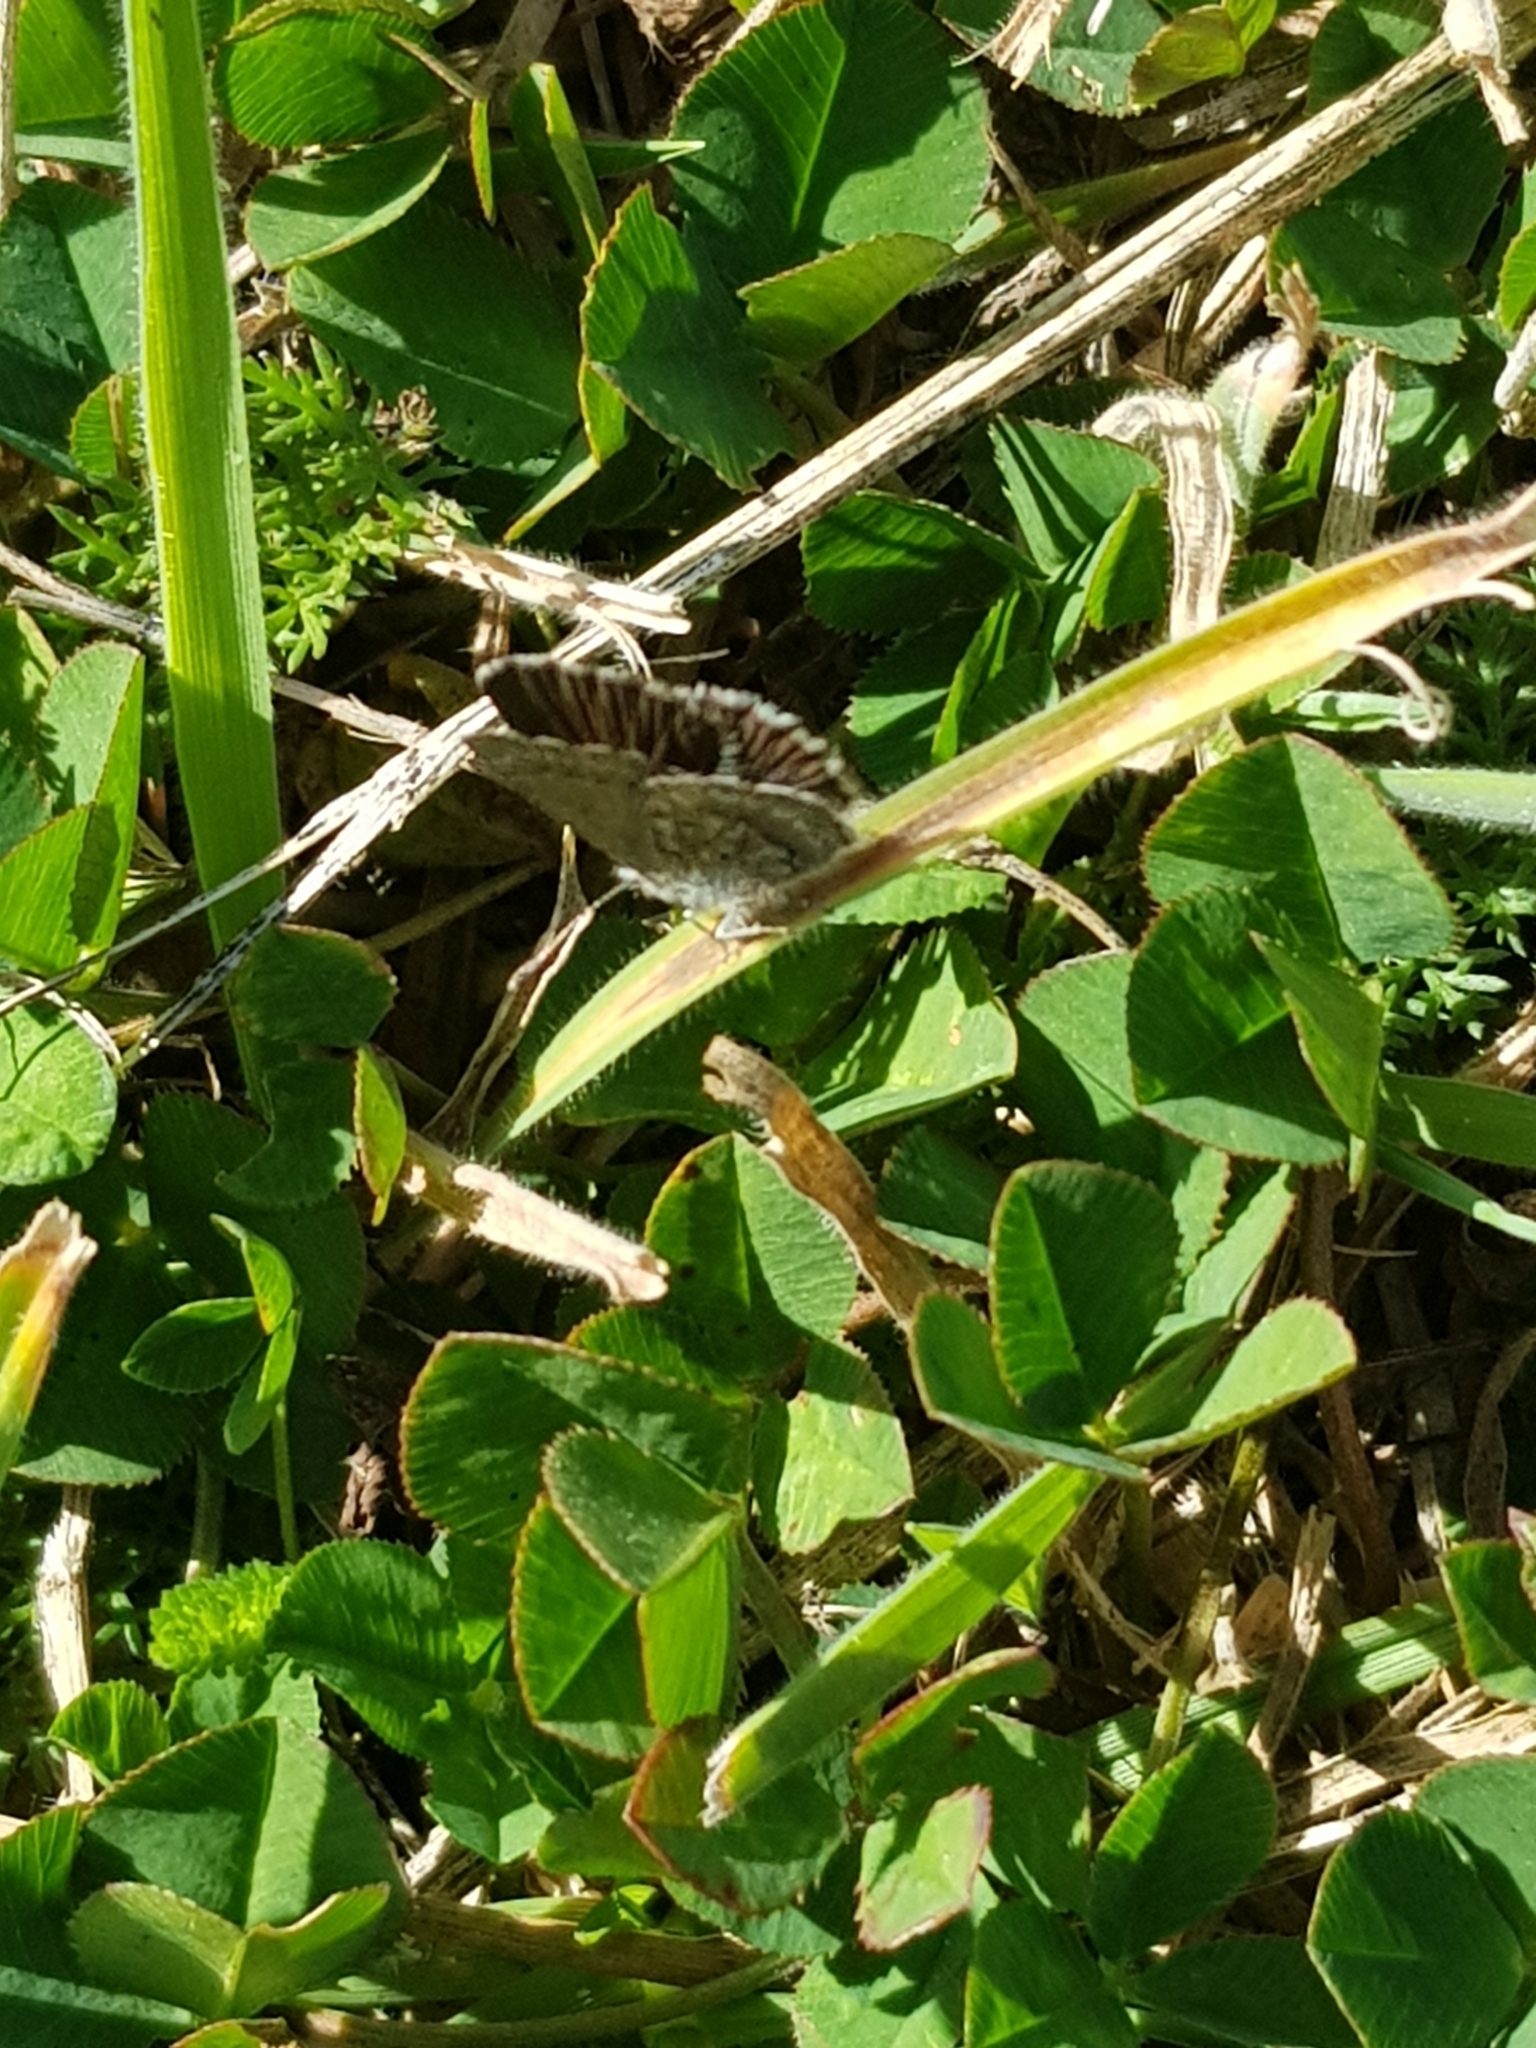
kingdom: Animalia
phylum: Arthropoda
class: Insecta
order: Lepidoptera
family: Lycaenidae
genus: Zizina
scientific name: Zizina oxleyi
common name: Southern blue
